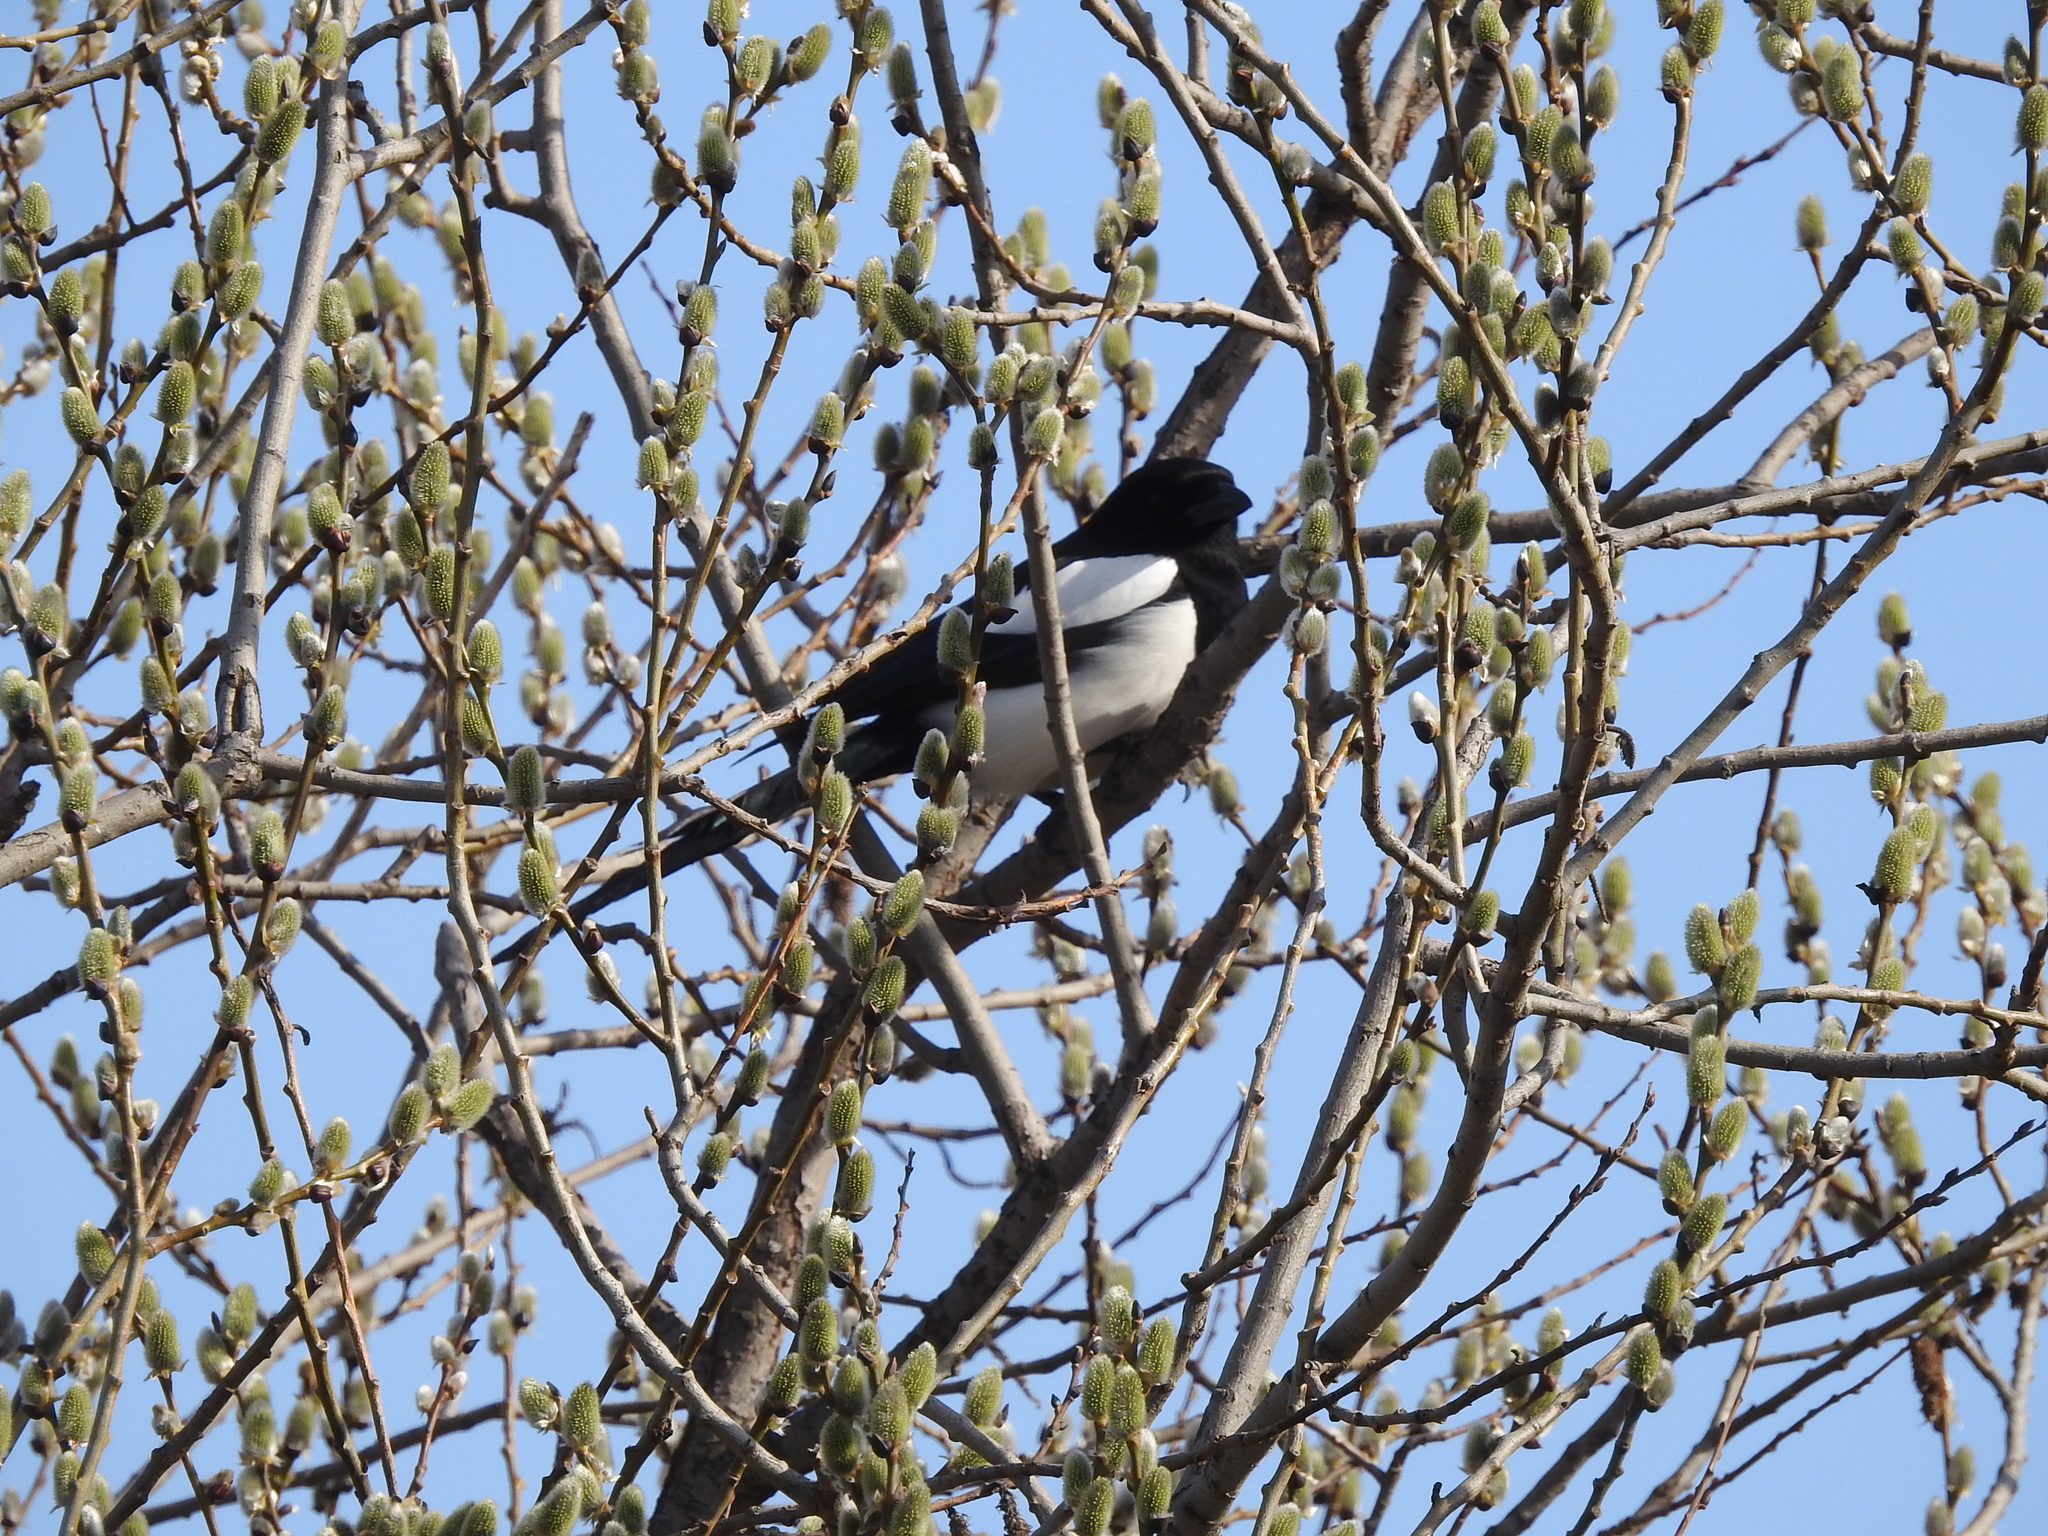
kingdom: Animalia
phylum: Chordata
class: Aves
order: Passeriformes
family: Corvidae
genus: Pica
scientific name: Pica pica
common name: Eurasian magpie
